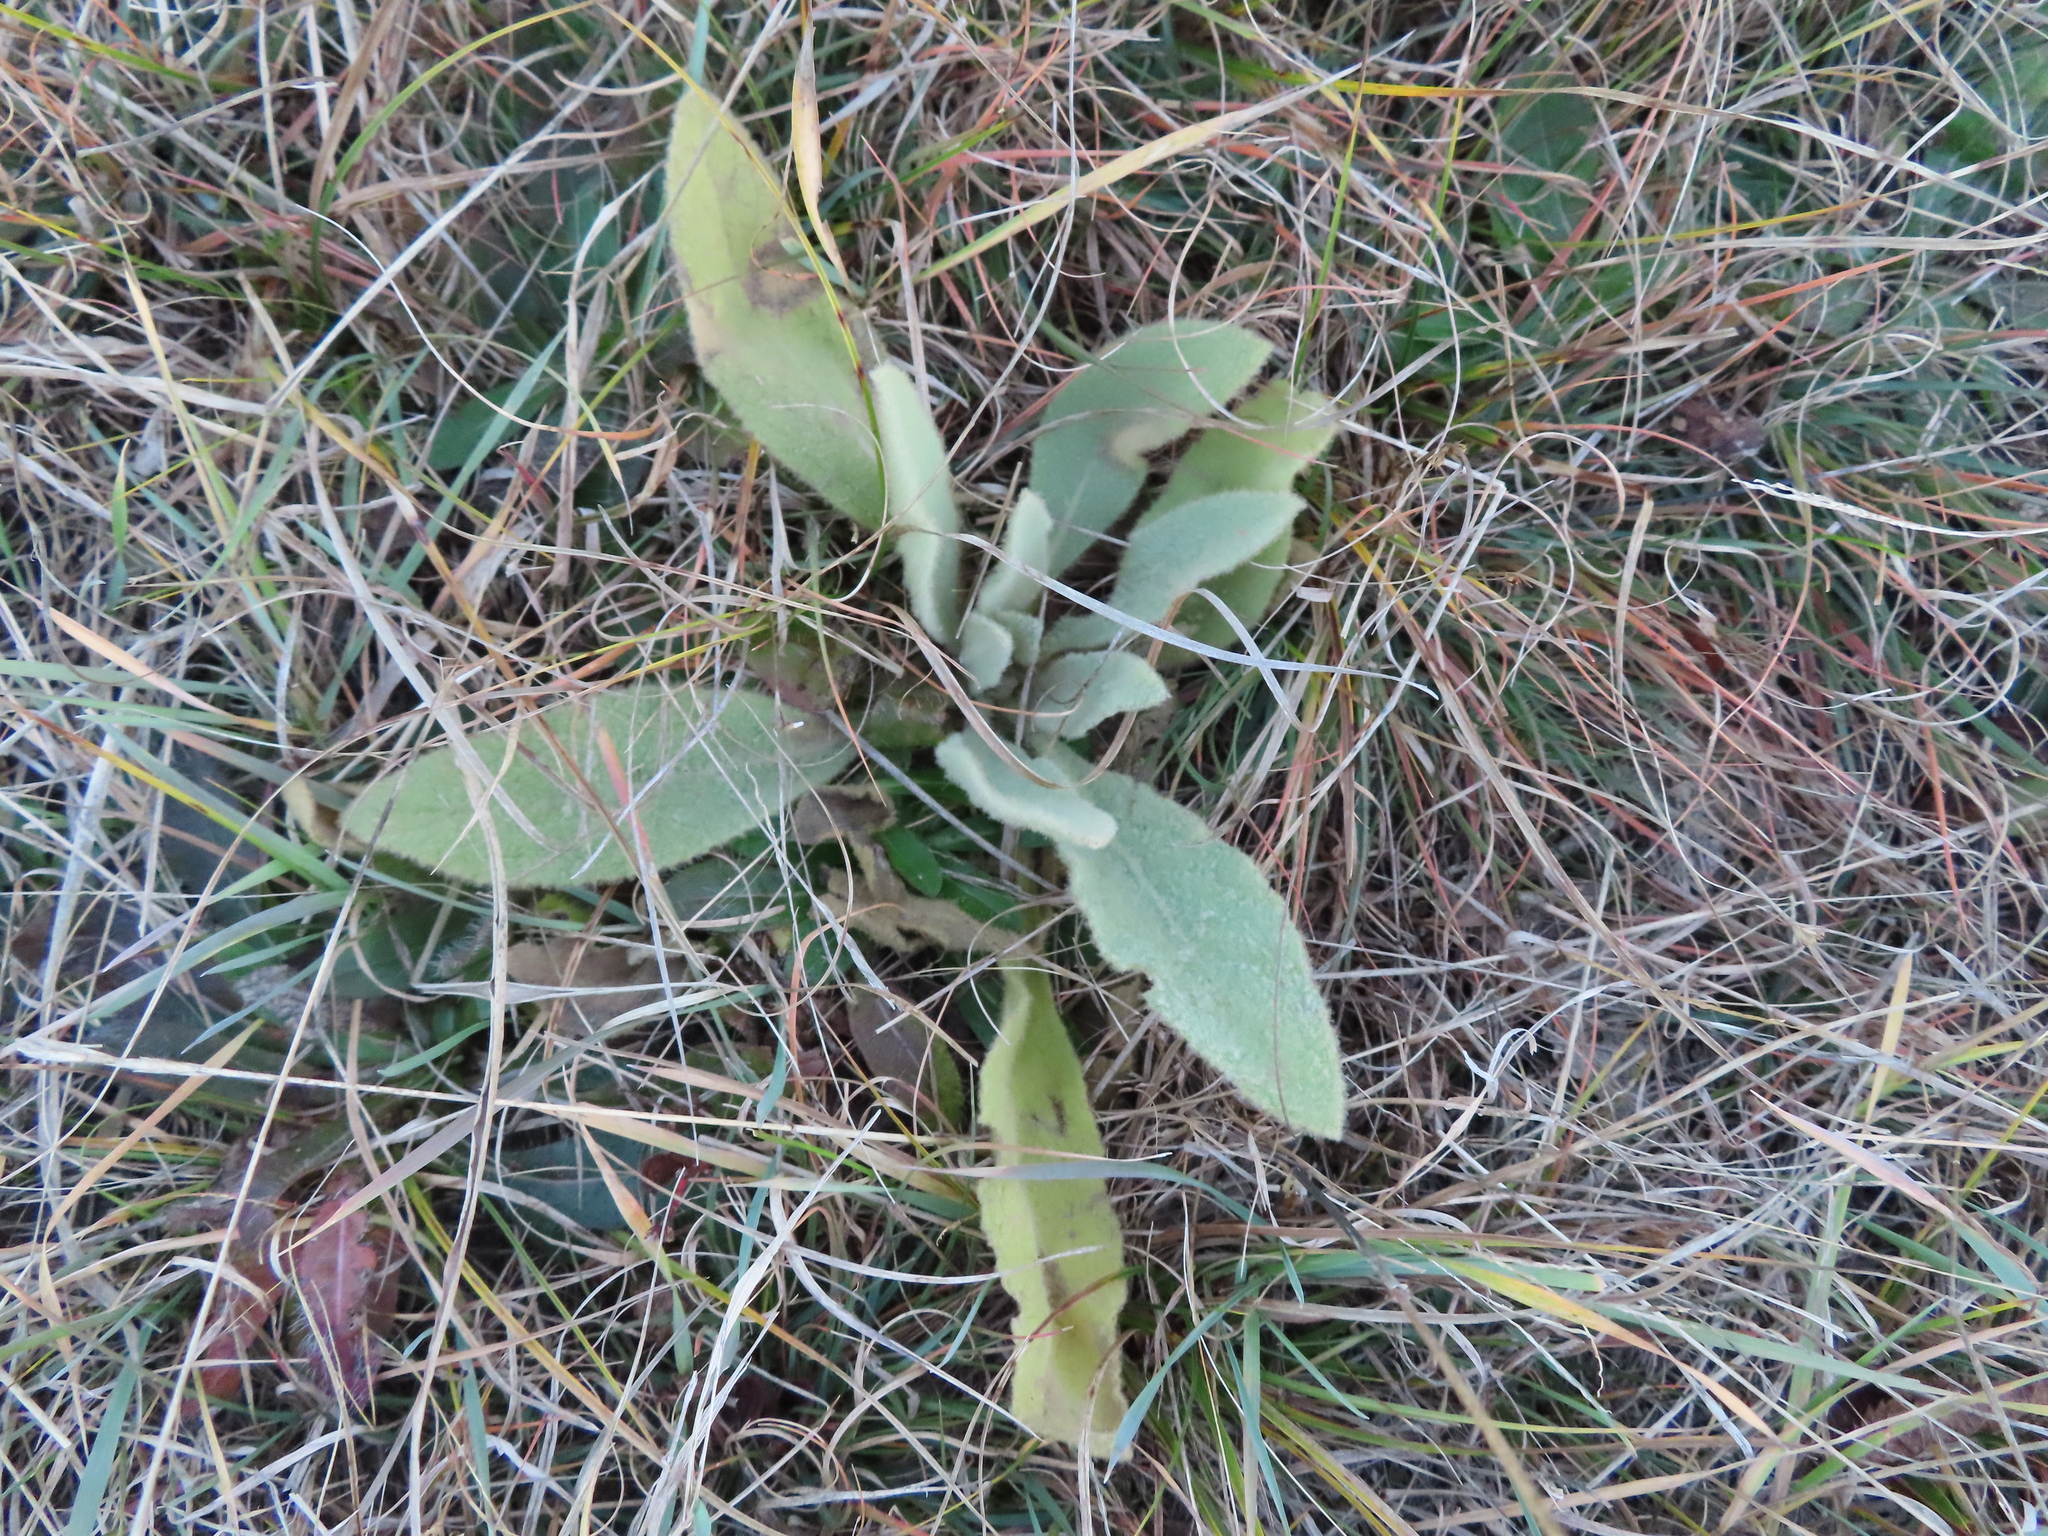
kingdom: Plantae
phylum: Tracheophyta
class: Magnoliopsida
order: Lamiales
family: Scrophulariaceae
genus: Verbascum
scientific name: Verbascum thapsus
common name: Common mullein
